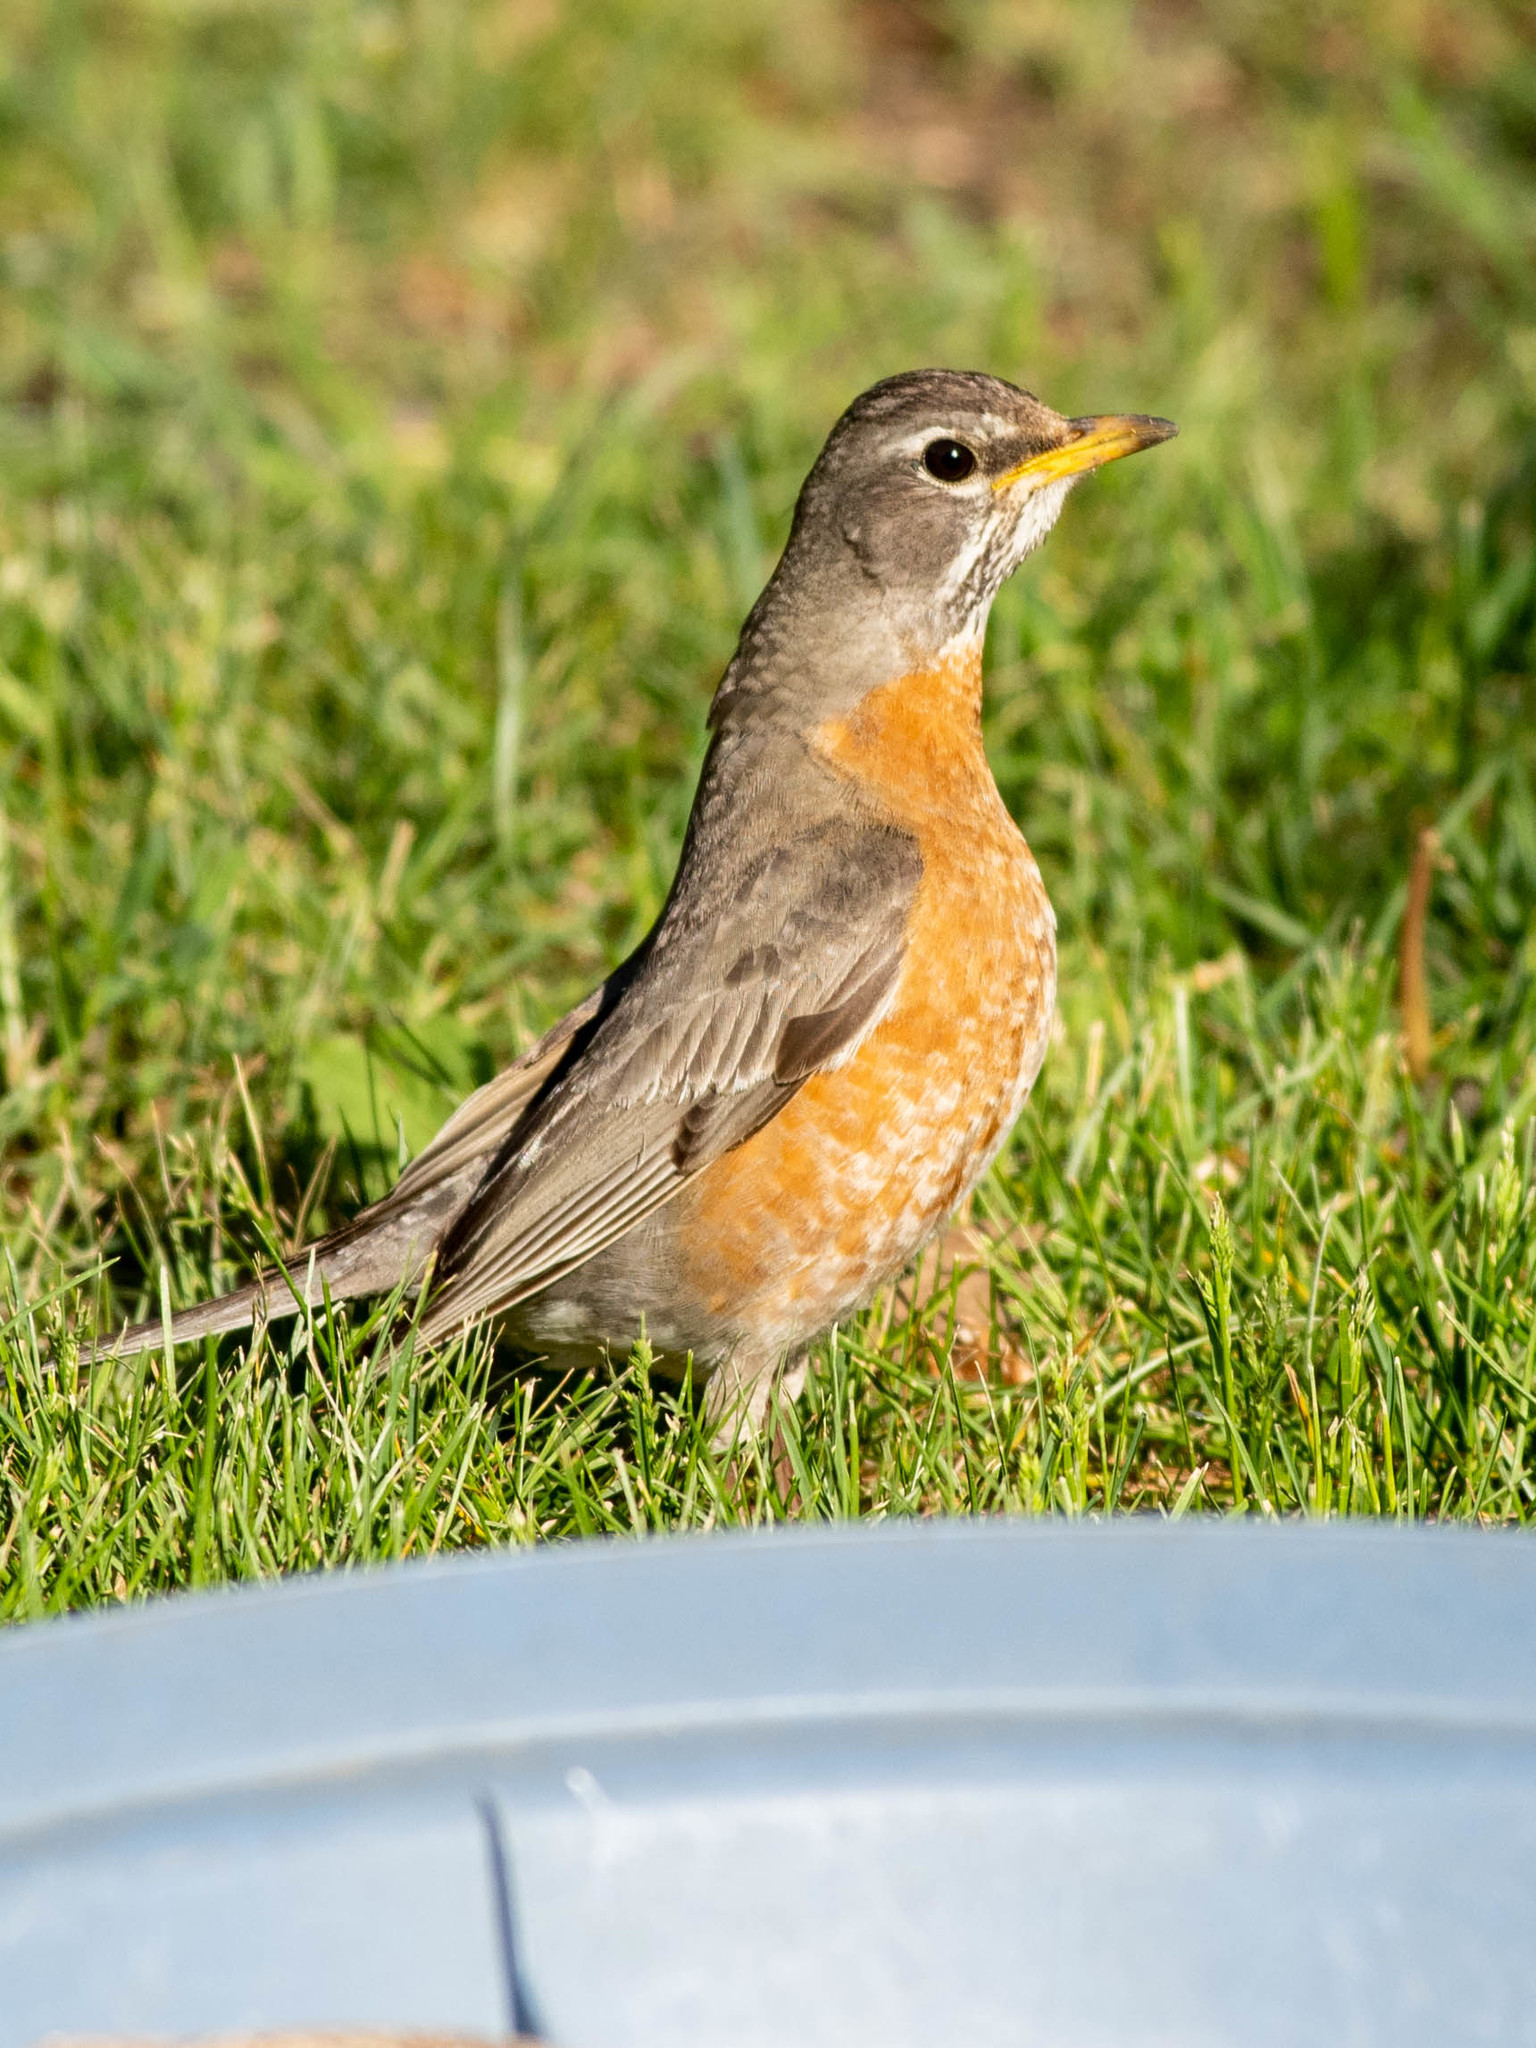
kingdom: Animalia
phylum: Chordata
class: Aves
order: Passeriformes
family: Turdidae
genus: Turdus
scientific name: Turdus migratorius
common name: American robin
